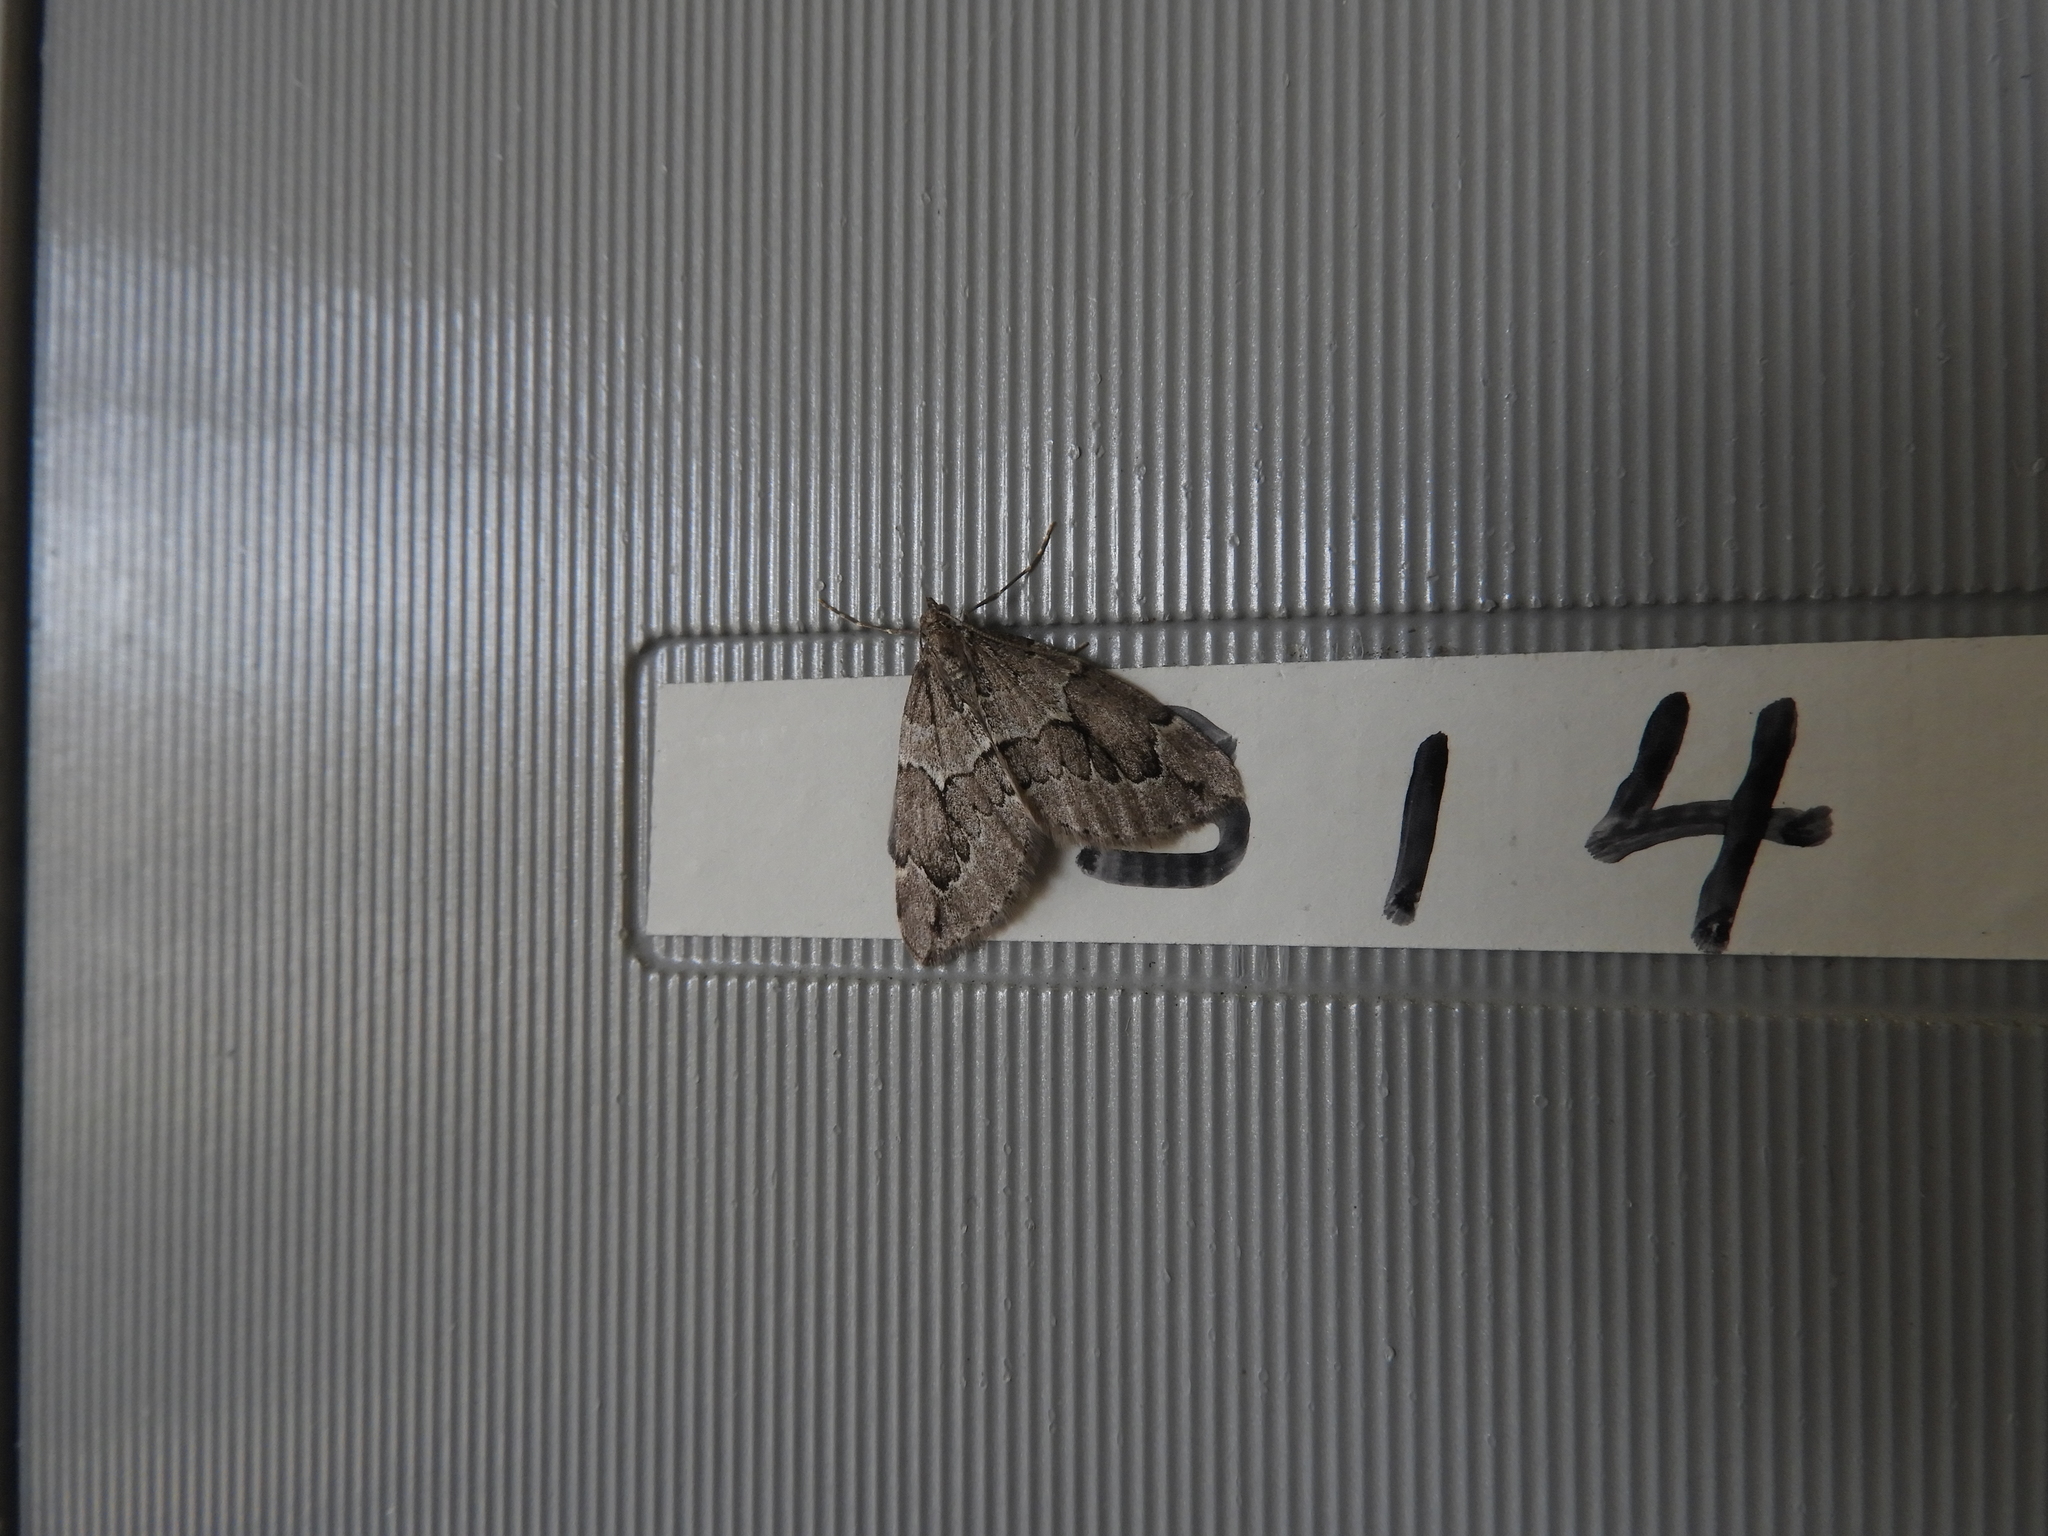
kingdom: Animalia
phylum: Arthropoda
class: Insecta
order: Lepidoptera
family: Geometridae
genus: Thera
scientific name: Thera juniperata
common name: Juniper carpet
